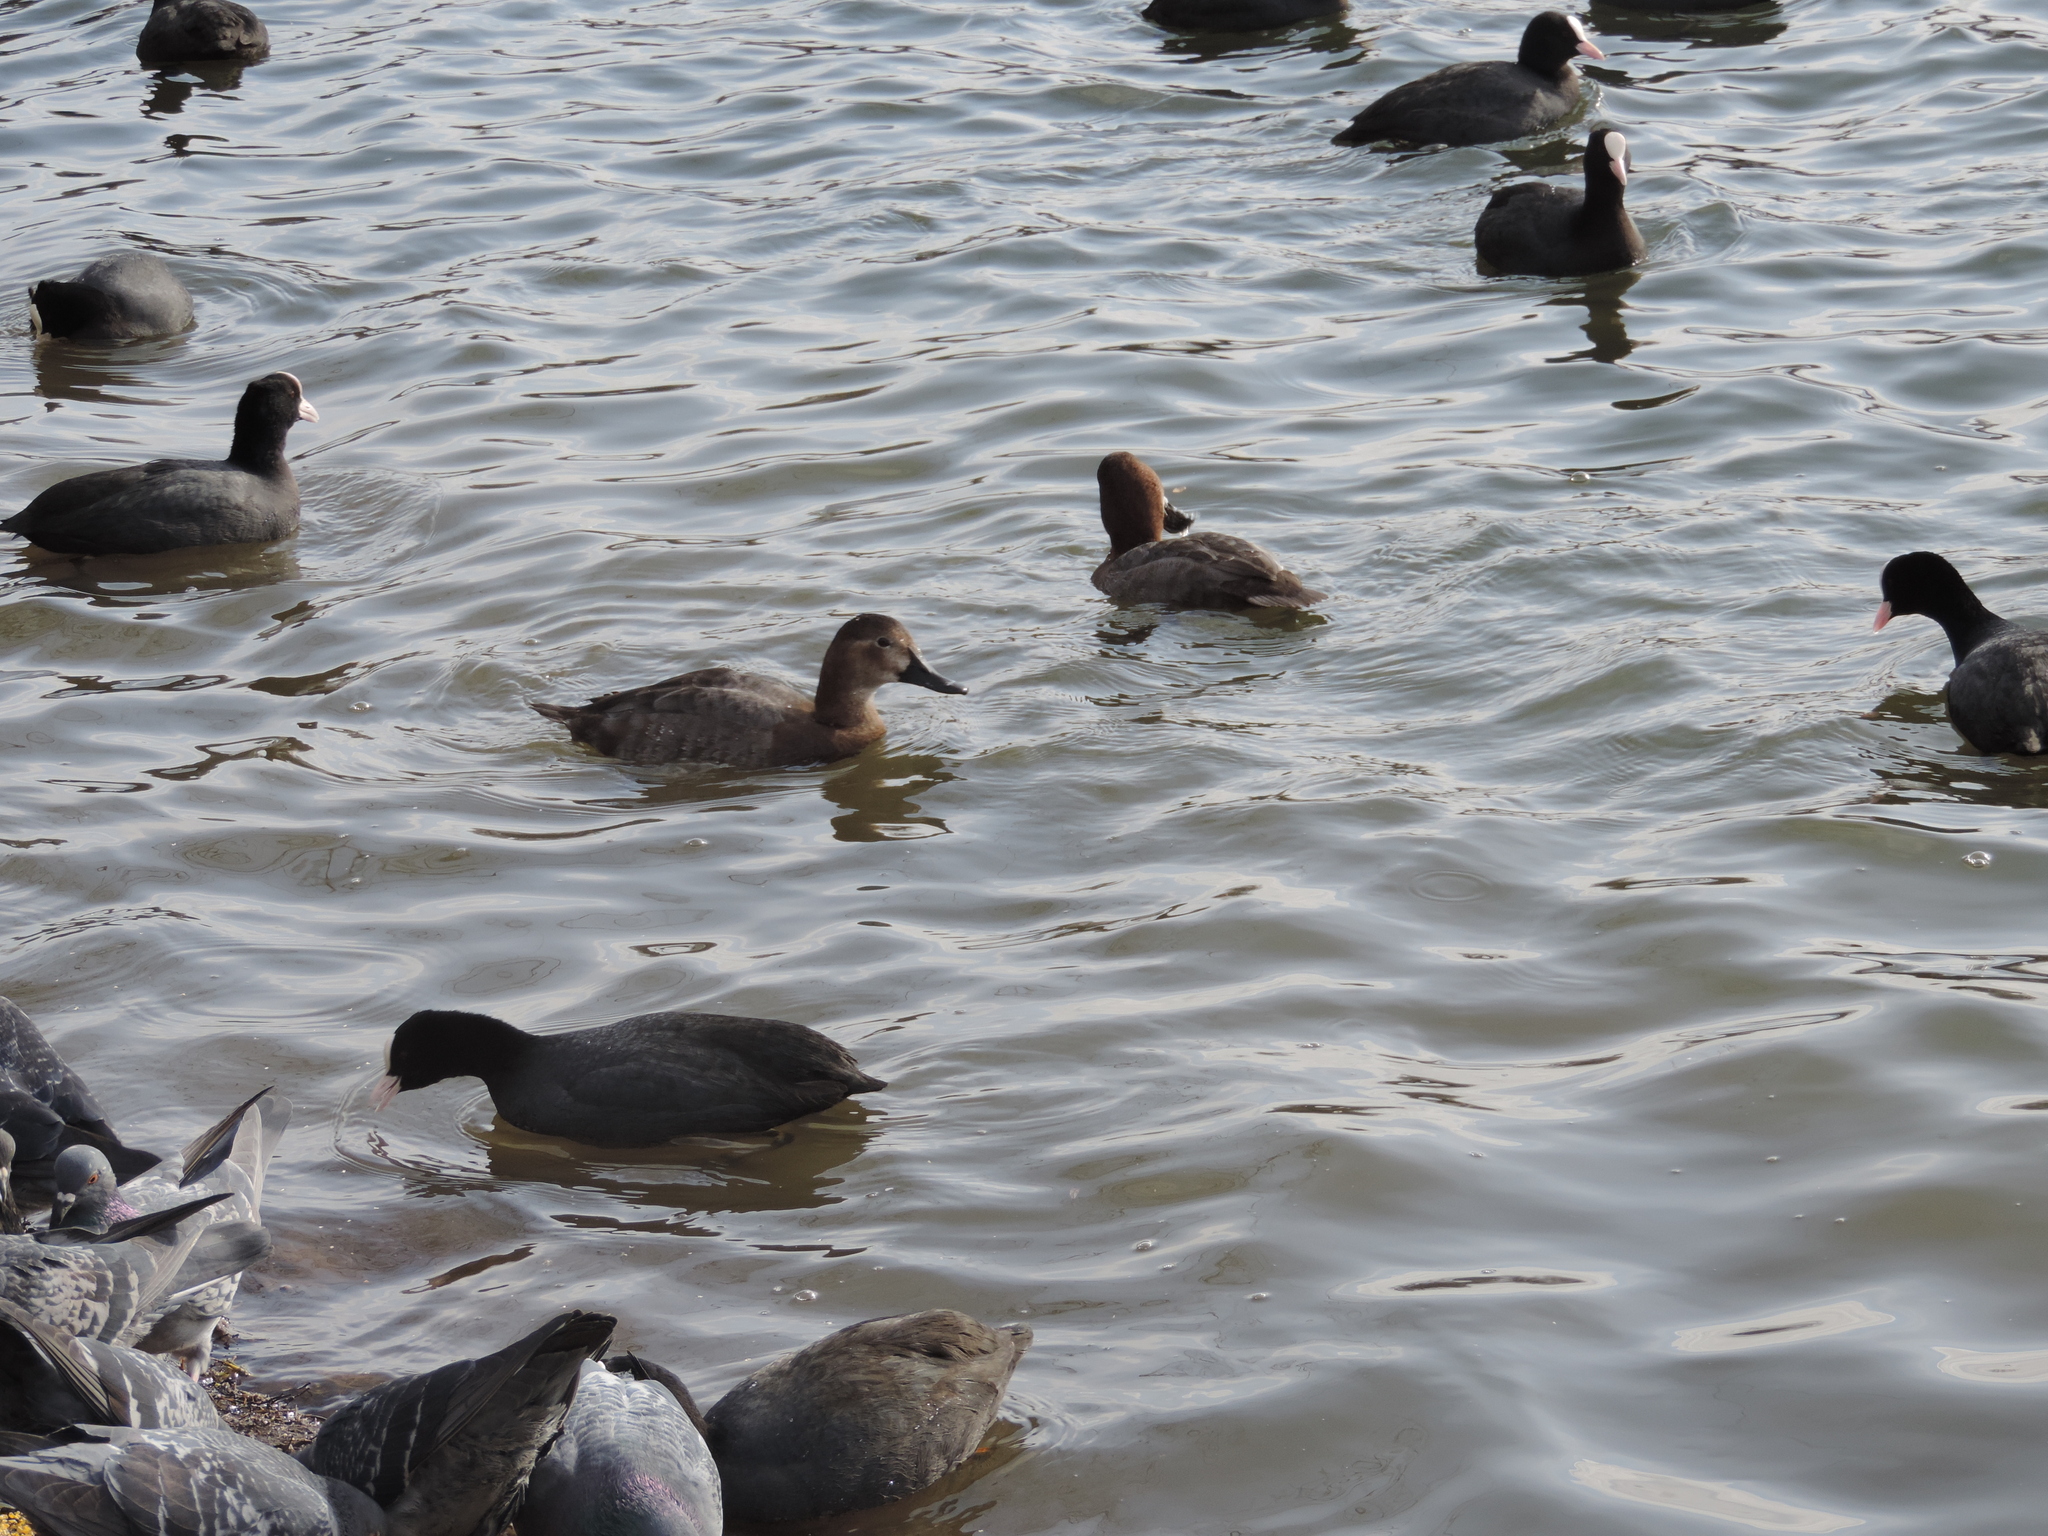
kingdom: Animalia
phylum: Chordata
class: Aves
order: Anseriformes
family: Anatidae
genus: Aythya
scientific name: Aythya ferina
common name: Common pochard
